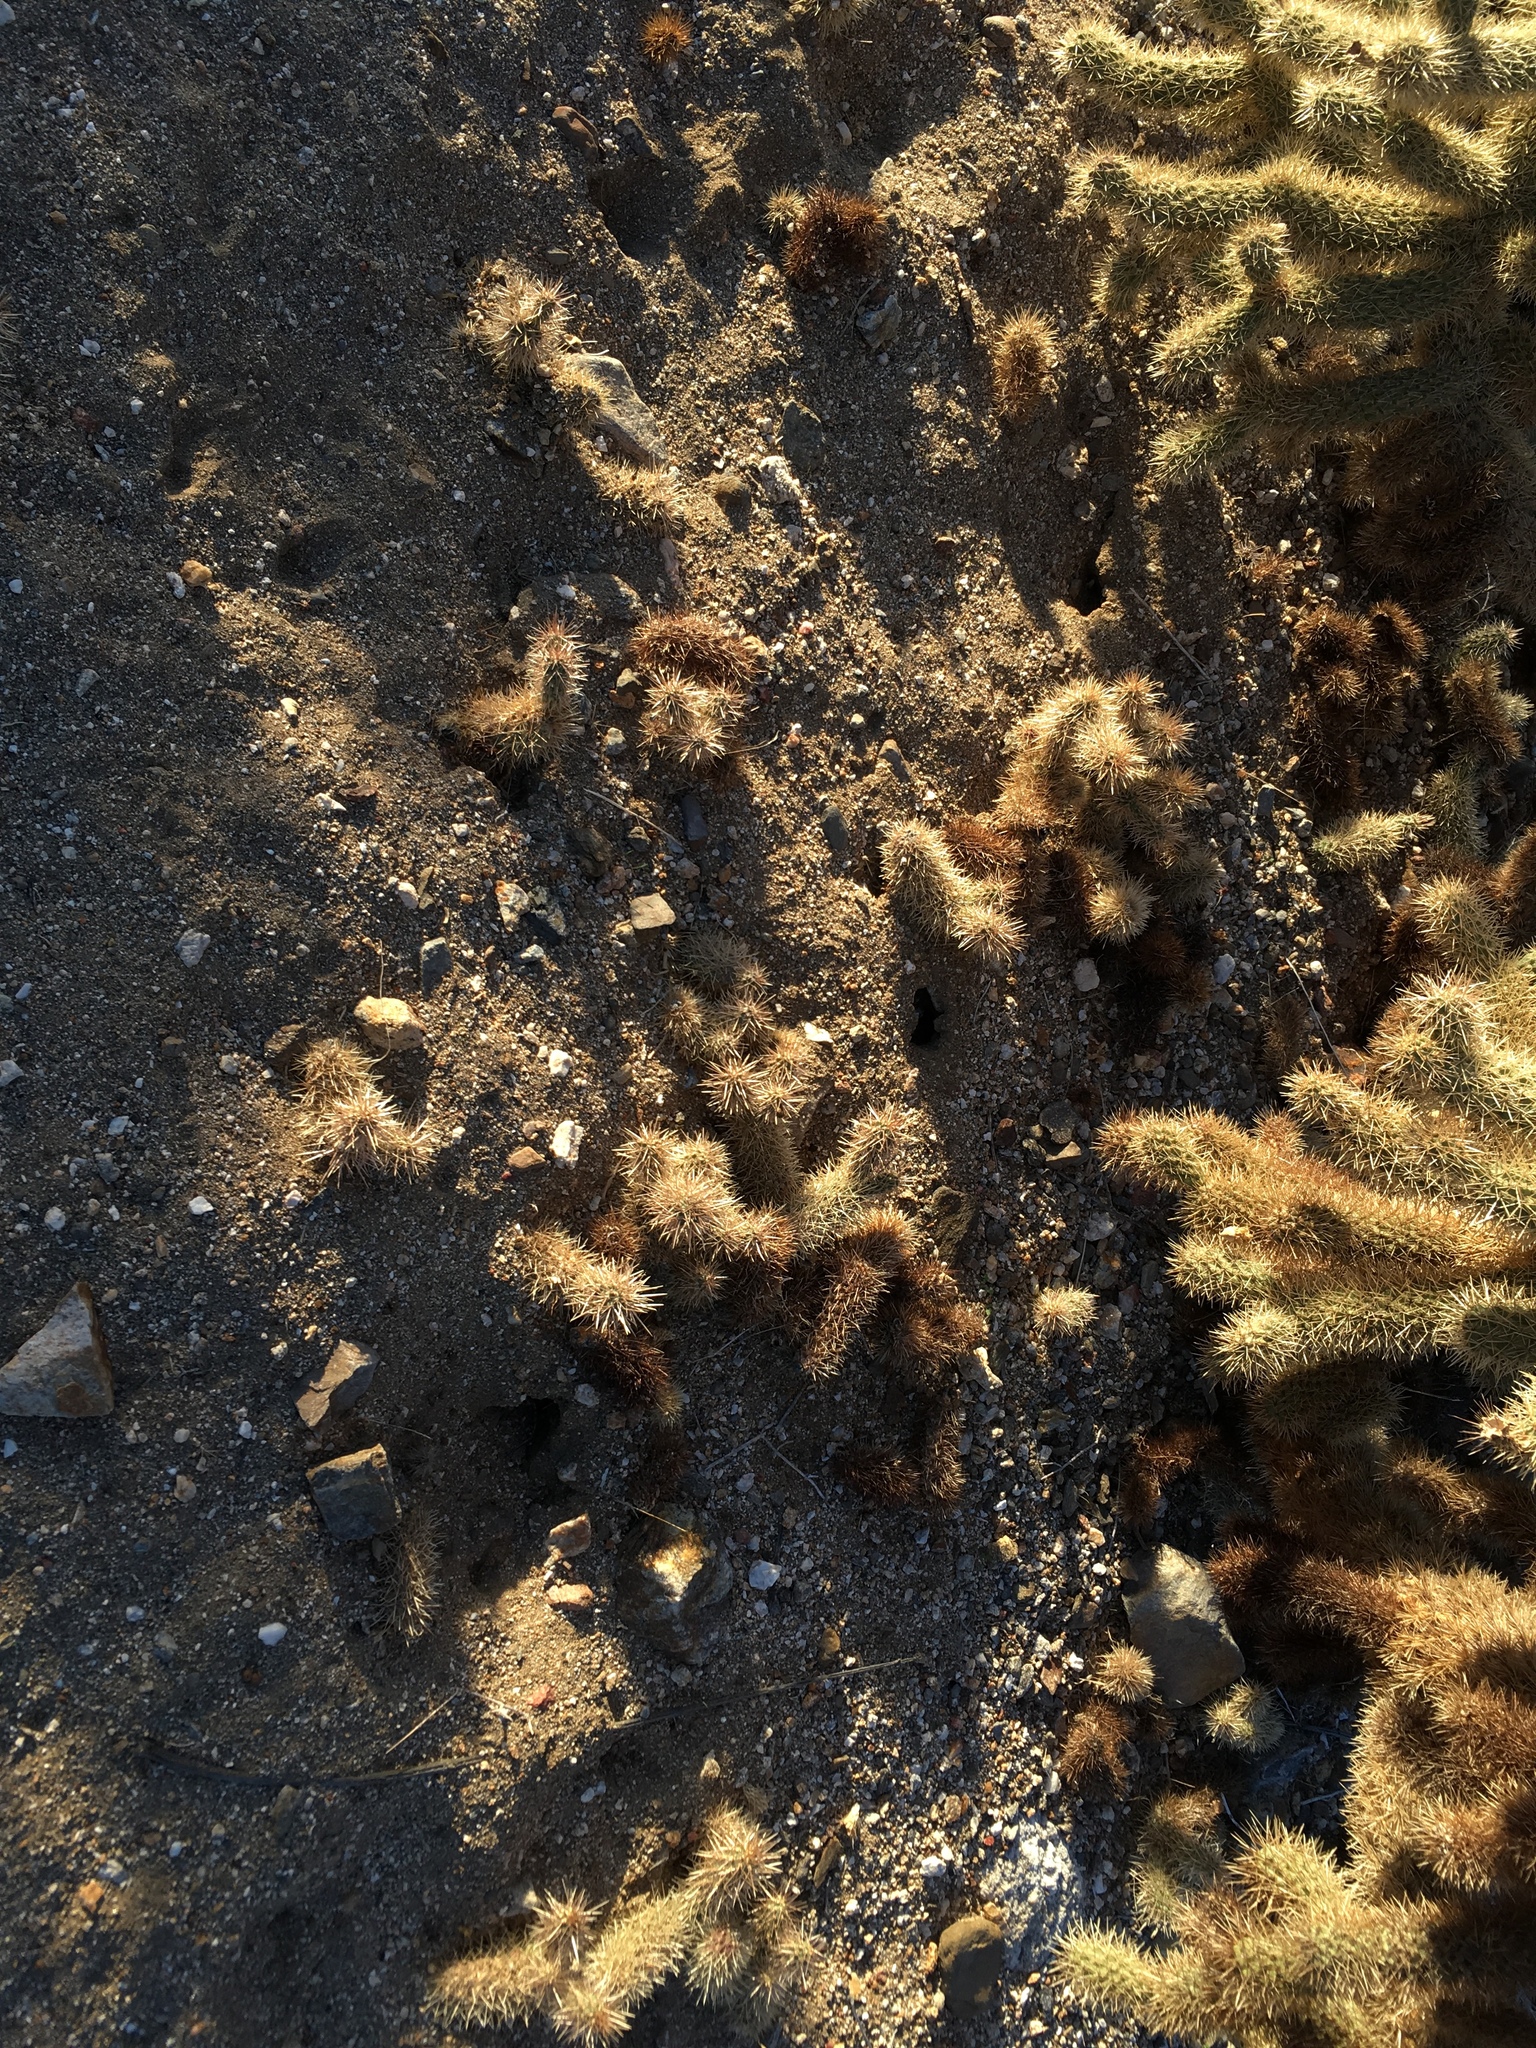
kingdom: Plantae
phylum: Tracheophyta
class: Magnoliopsida
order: Caryophyllales
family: Cactaceae
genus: Cylindropuntia
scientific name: Cylindropuntia fosbergii
